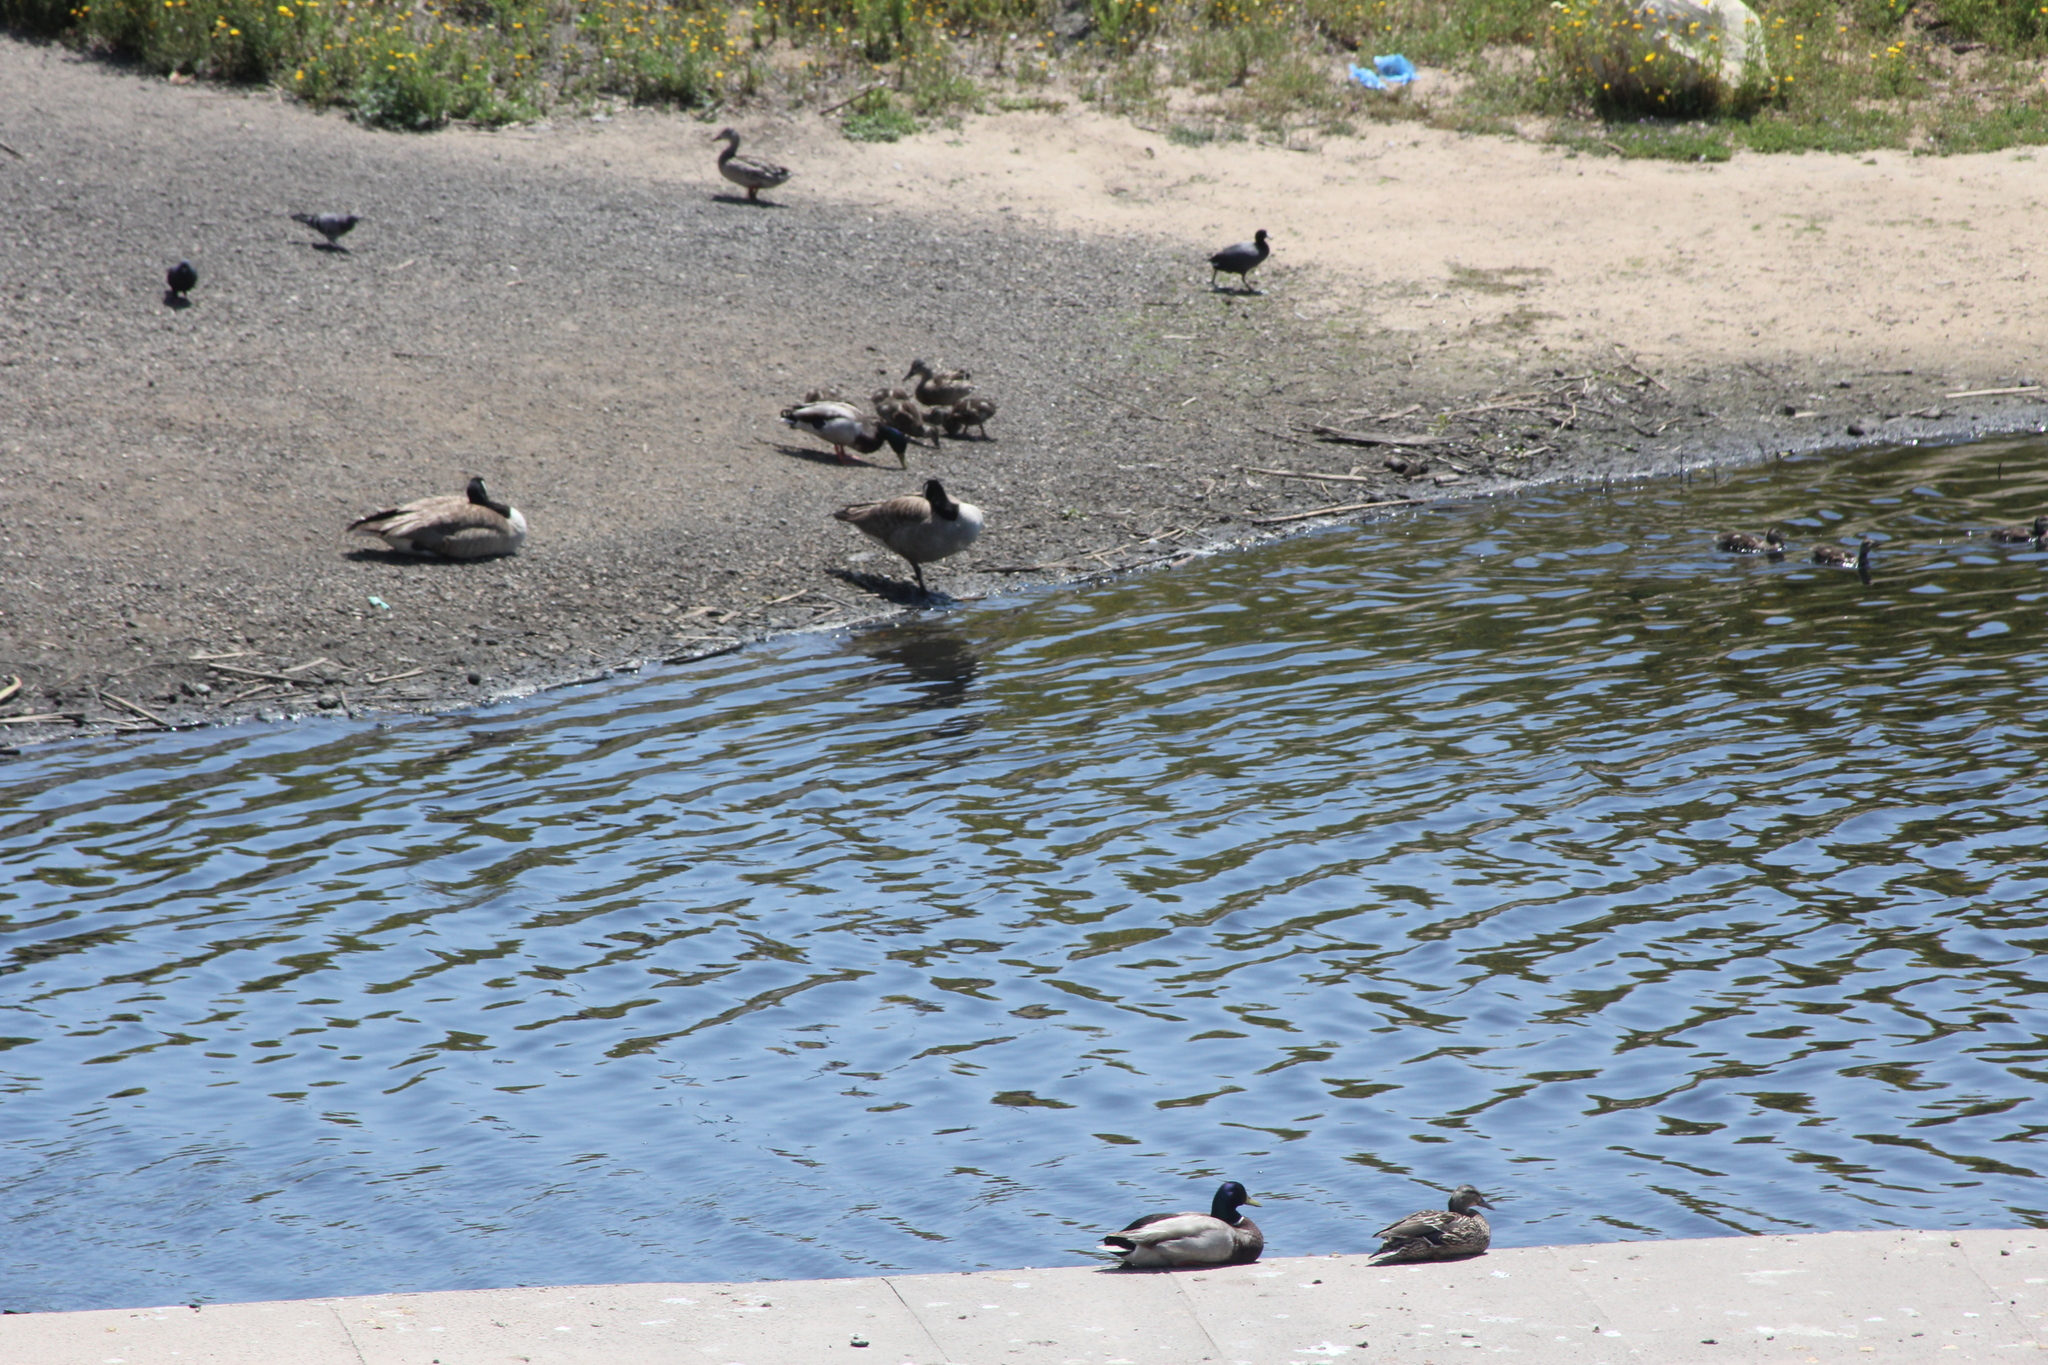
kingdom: Animalia
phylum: Chordata
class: Aves
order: Anseriformes
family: Anatidae
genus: Anas
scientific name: Anas platyrhynchos
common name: Mallard
